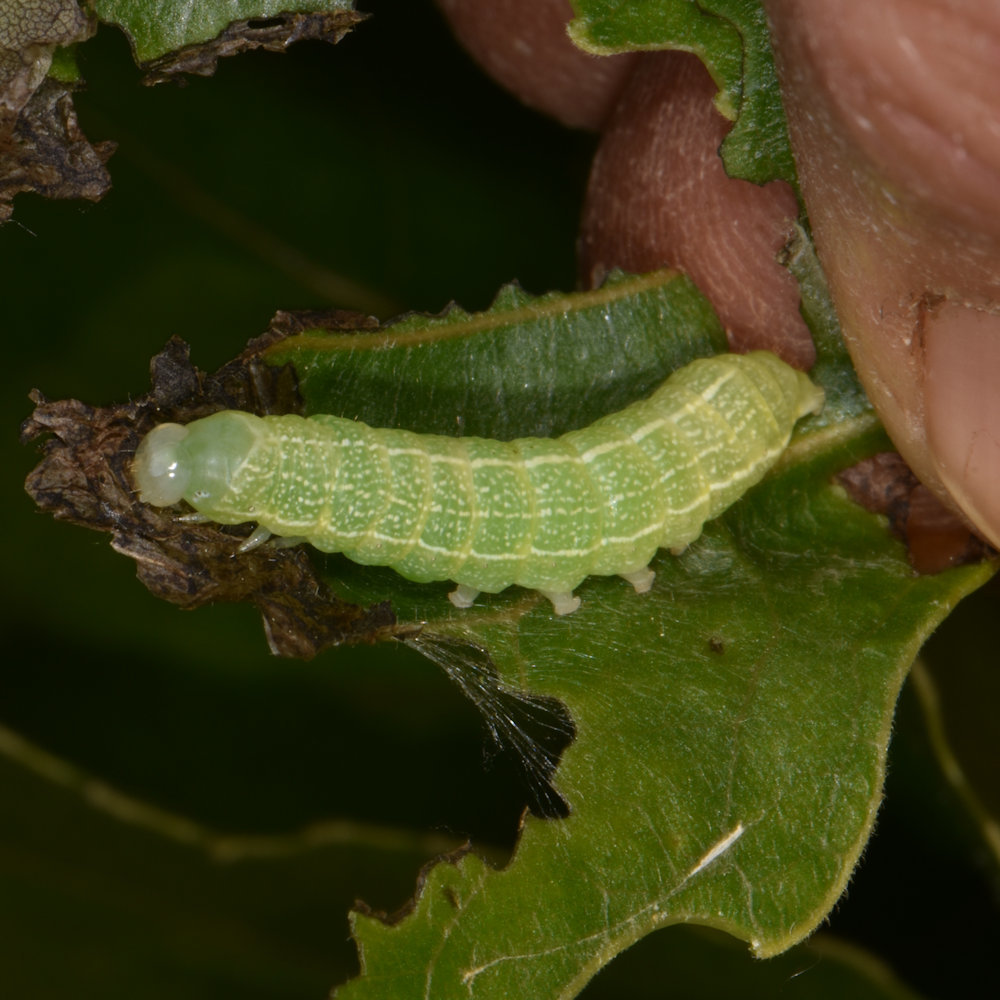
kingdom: Animalia
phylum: Arthropoda
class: Insecta
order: Lepidoptera
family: Noctuidae
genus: Orthosia
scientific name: Orthosia hibisci
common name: Green fruitworm
